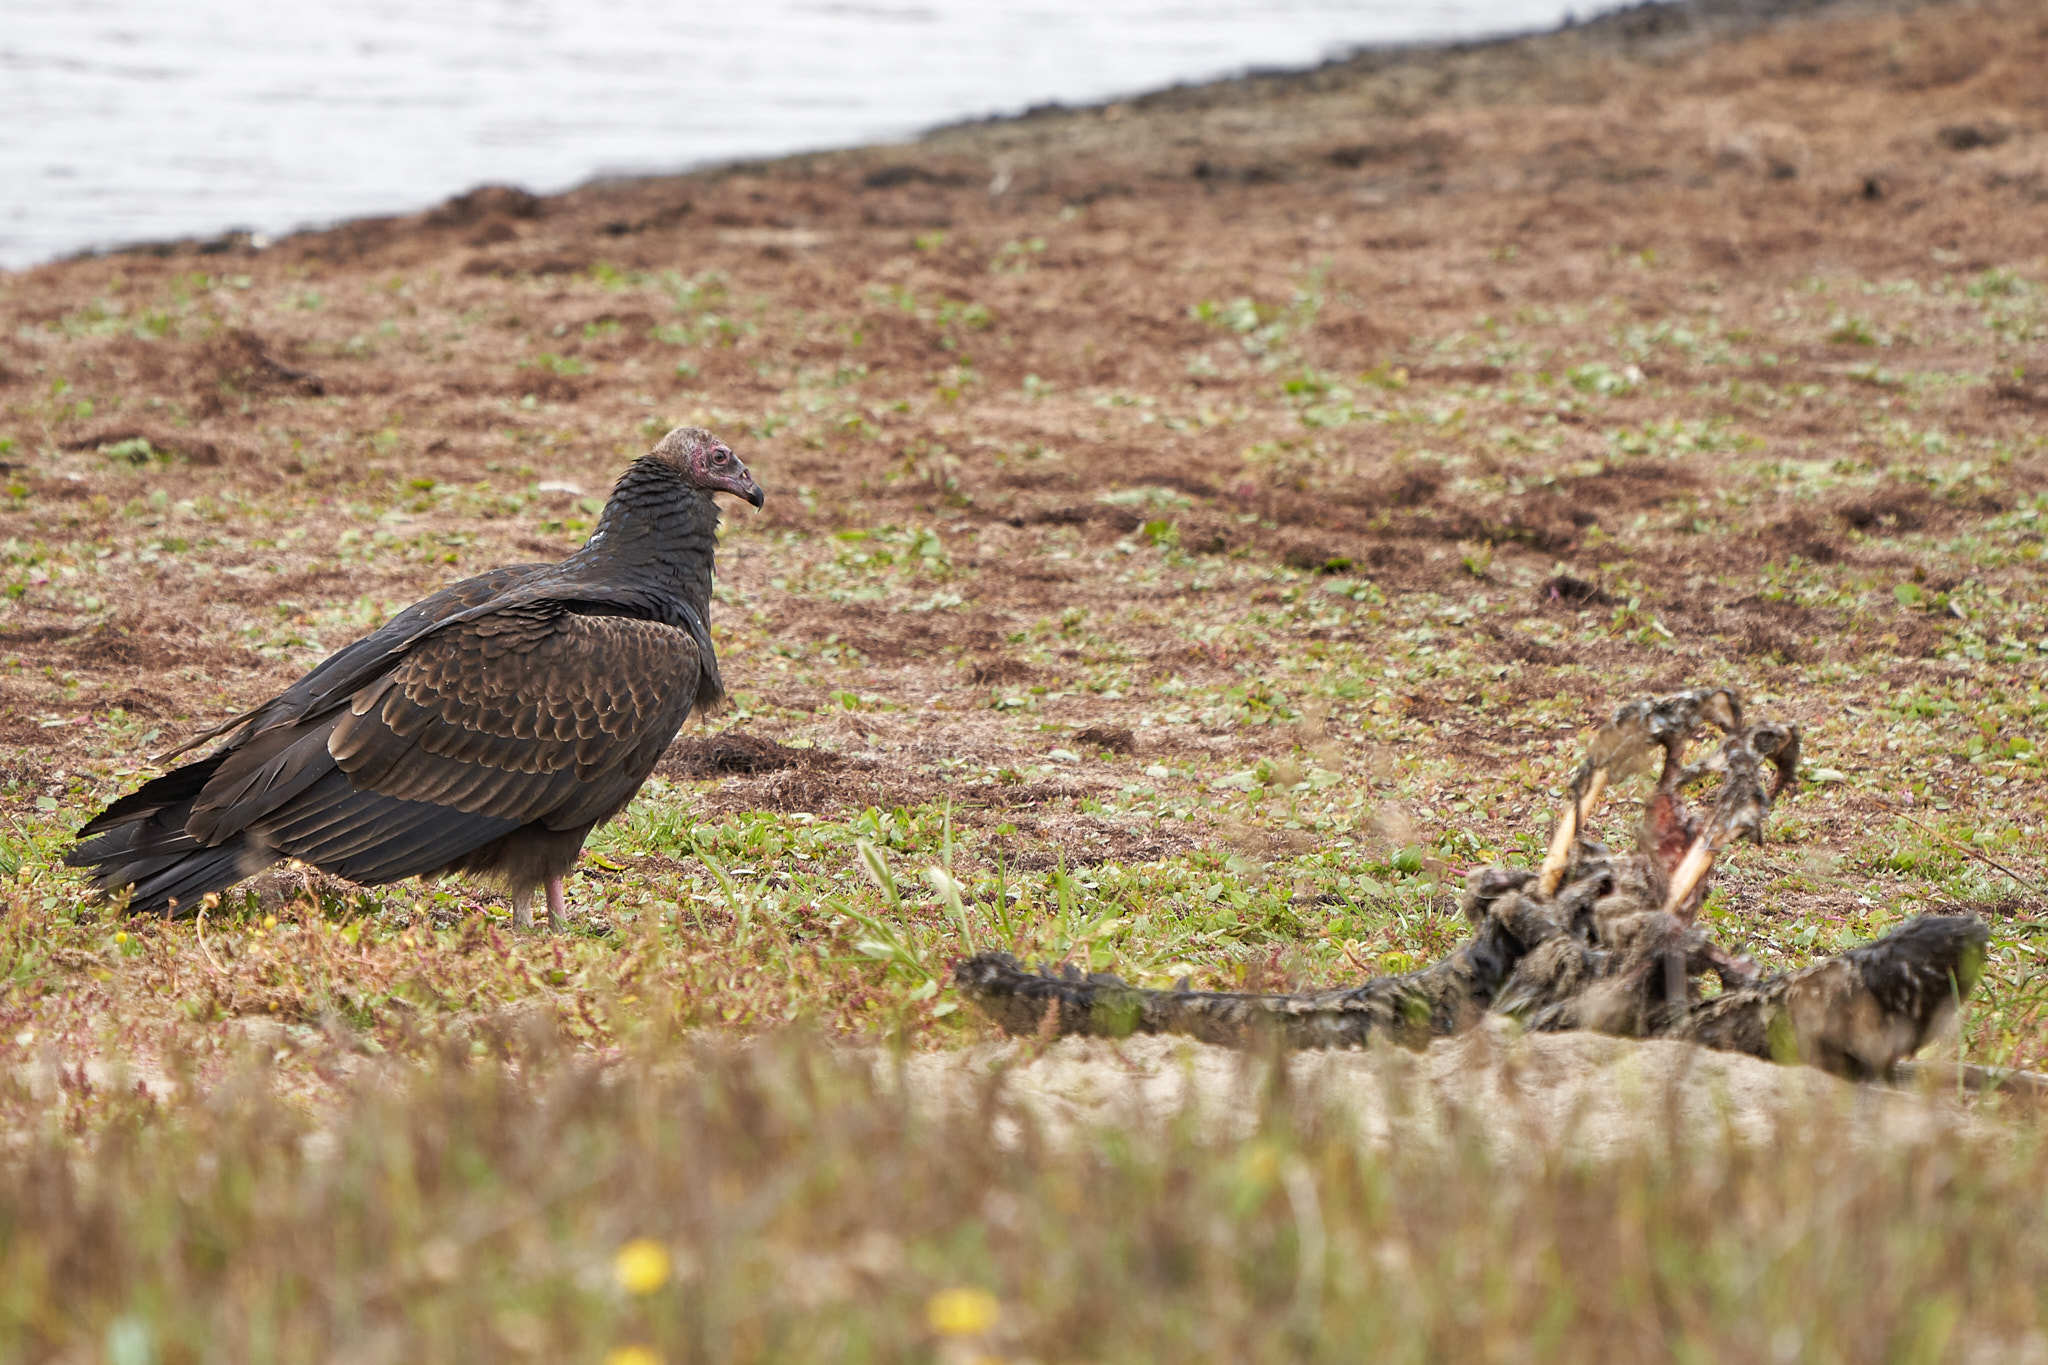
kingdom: Animalia
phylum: Chordata
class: Aves
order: Accipitriformes
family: Cathartidae
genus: Cathartes
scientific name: Cathartes aura
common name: Turkey vulture
